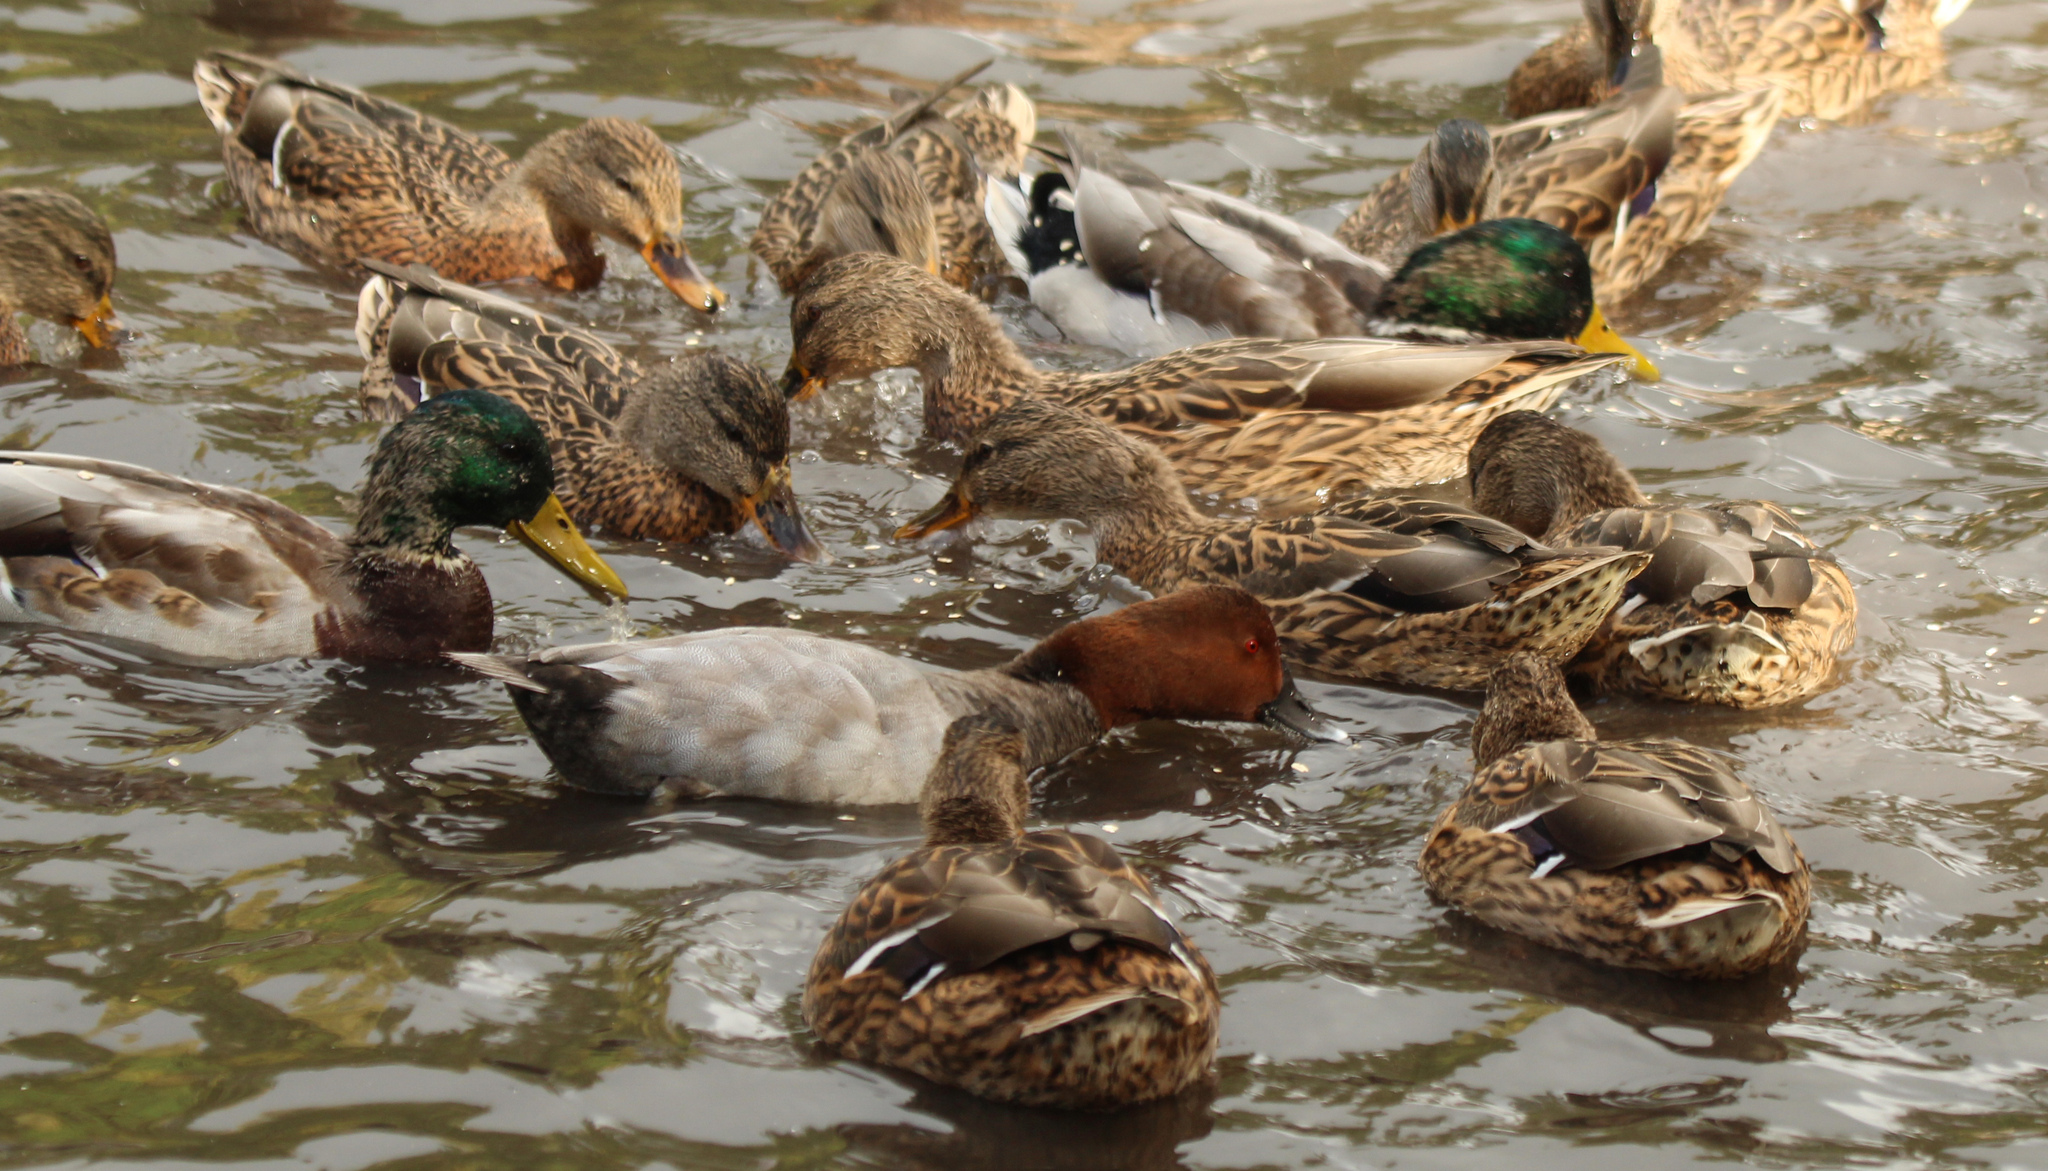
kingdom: Animalia
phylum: Chordata
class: Aves
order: Anseriformes
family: Anatidae
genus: Anas
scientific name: Anas platyrhynchos
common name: Mallard
